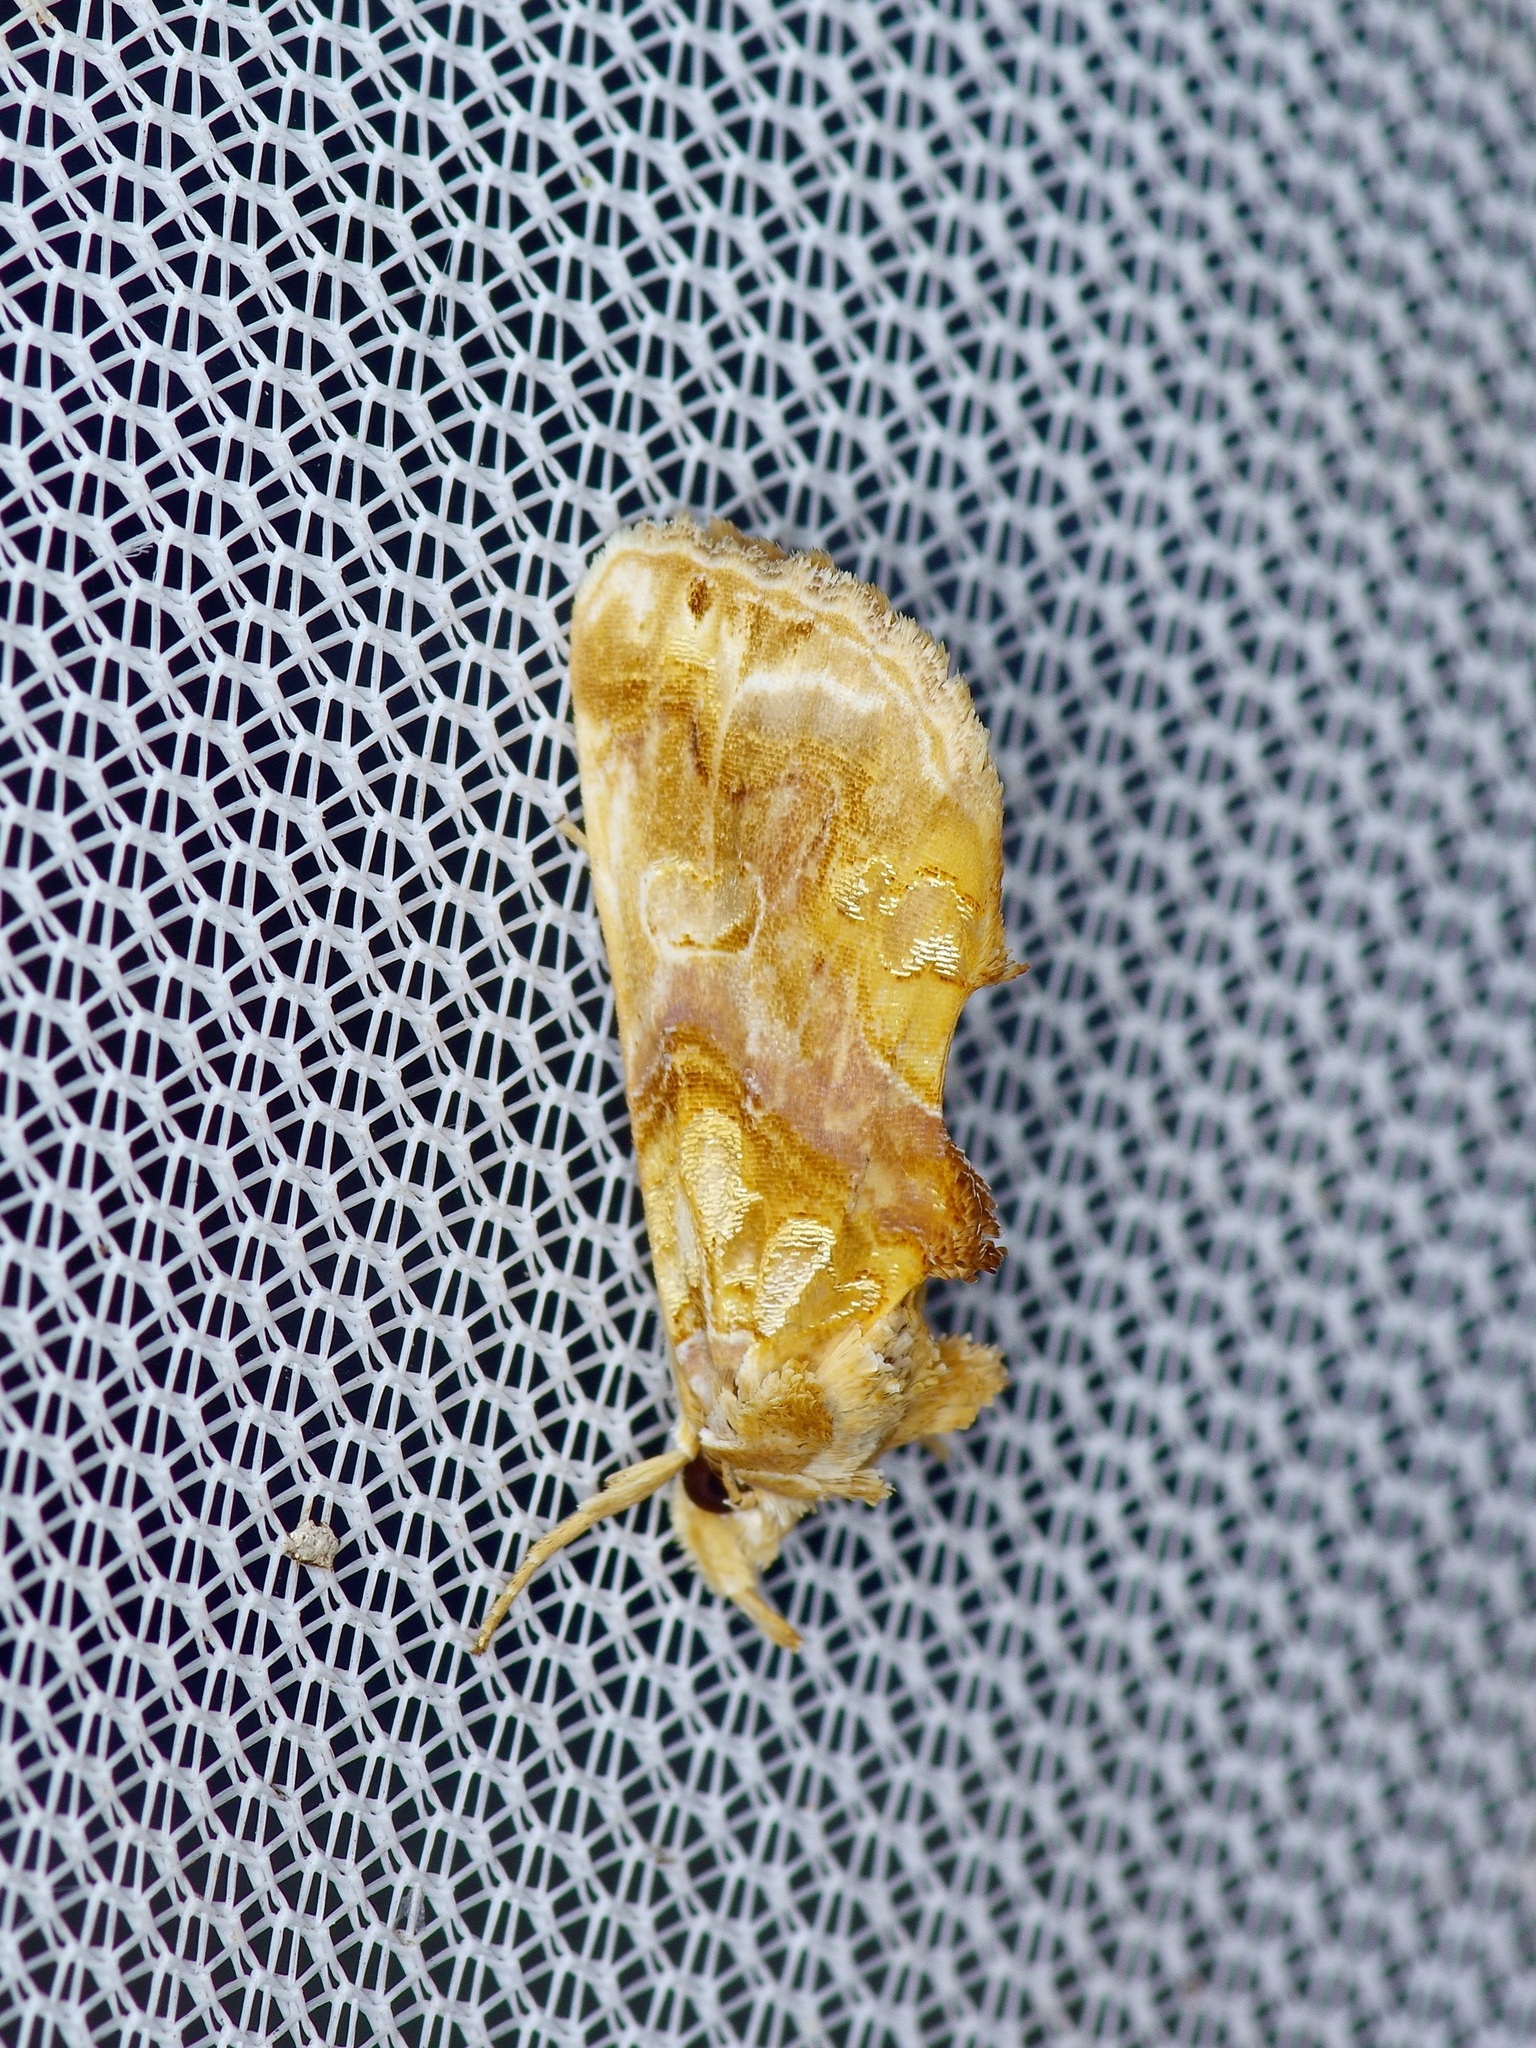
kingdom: Animalia
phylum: Arthropoda
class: Insecta
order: Lepidoptera
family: Erebidae
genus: Plusiodonta
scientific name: Plusiodonta compressipalpis
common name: Moonseed moth
